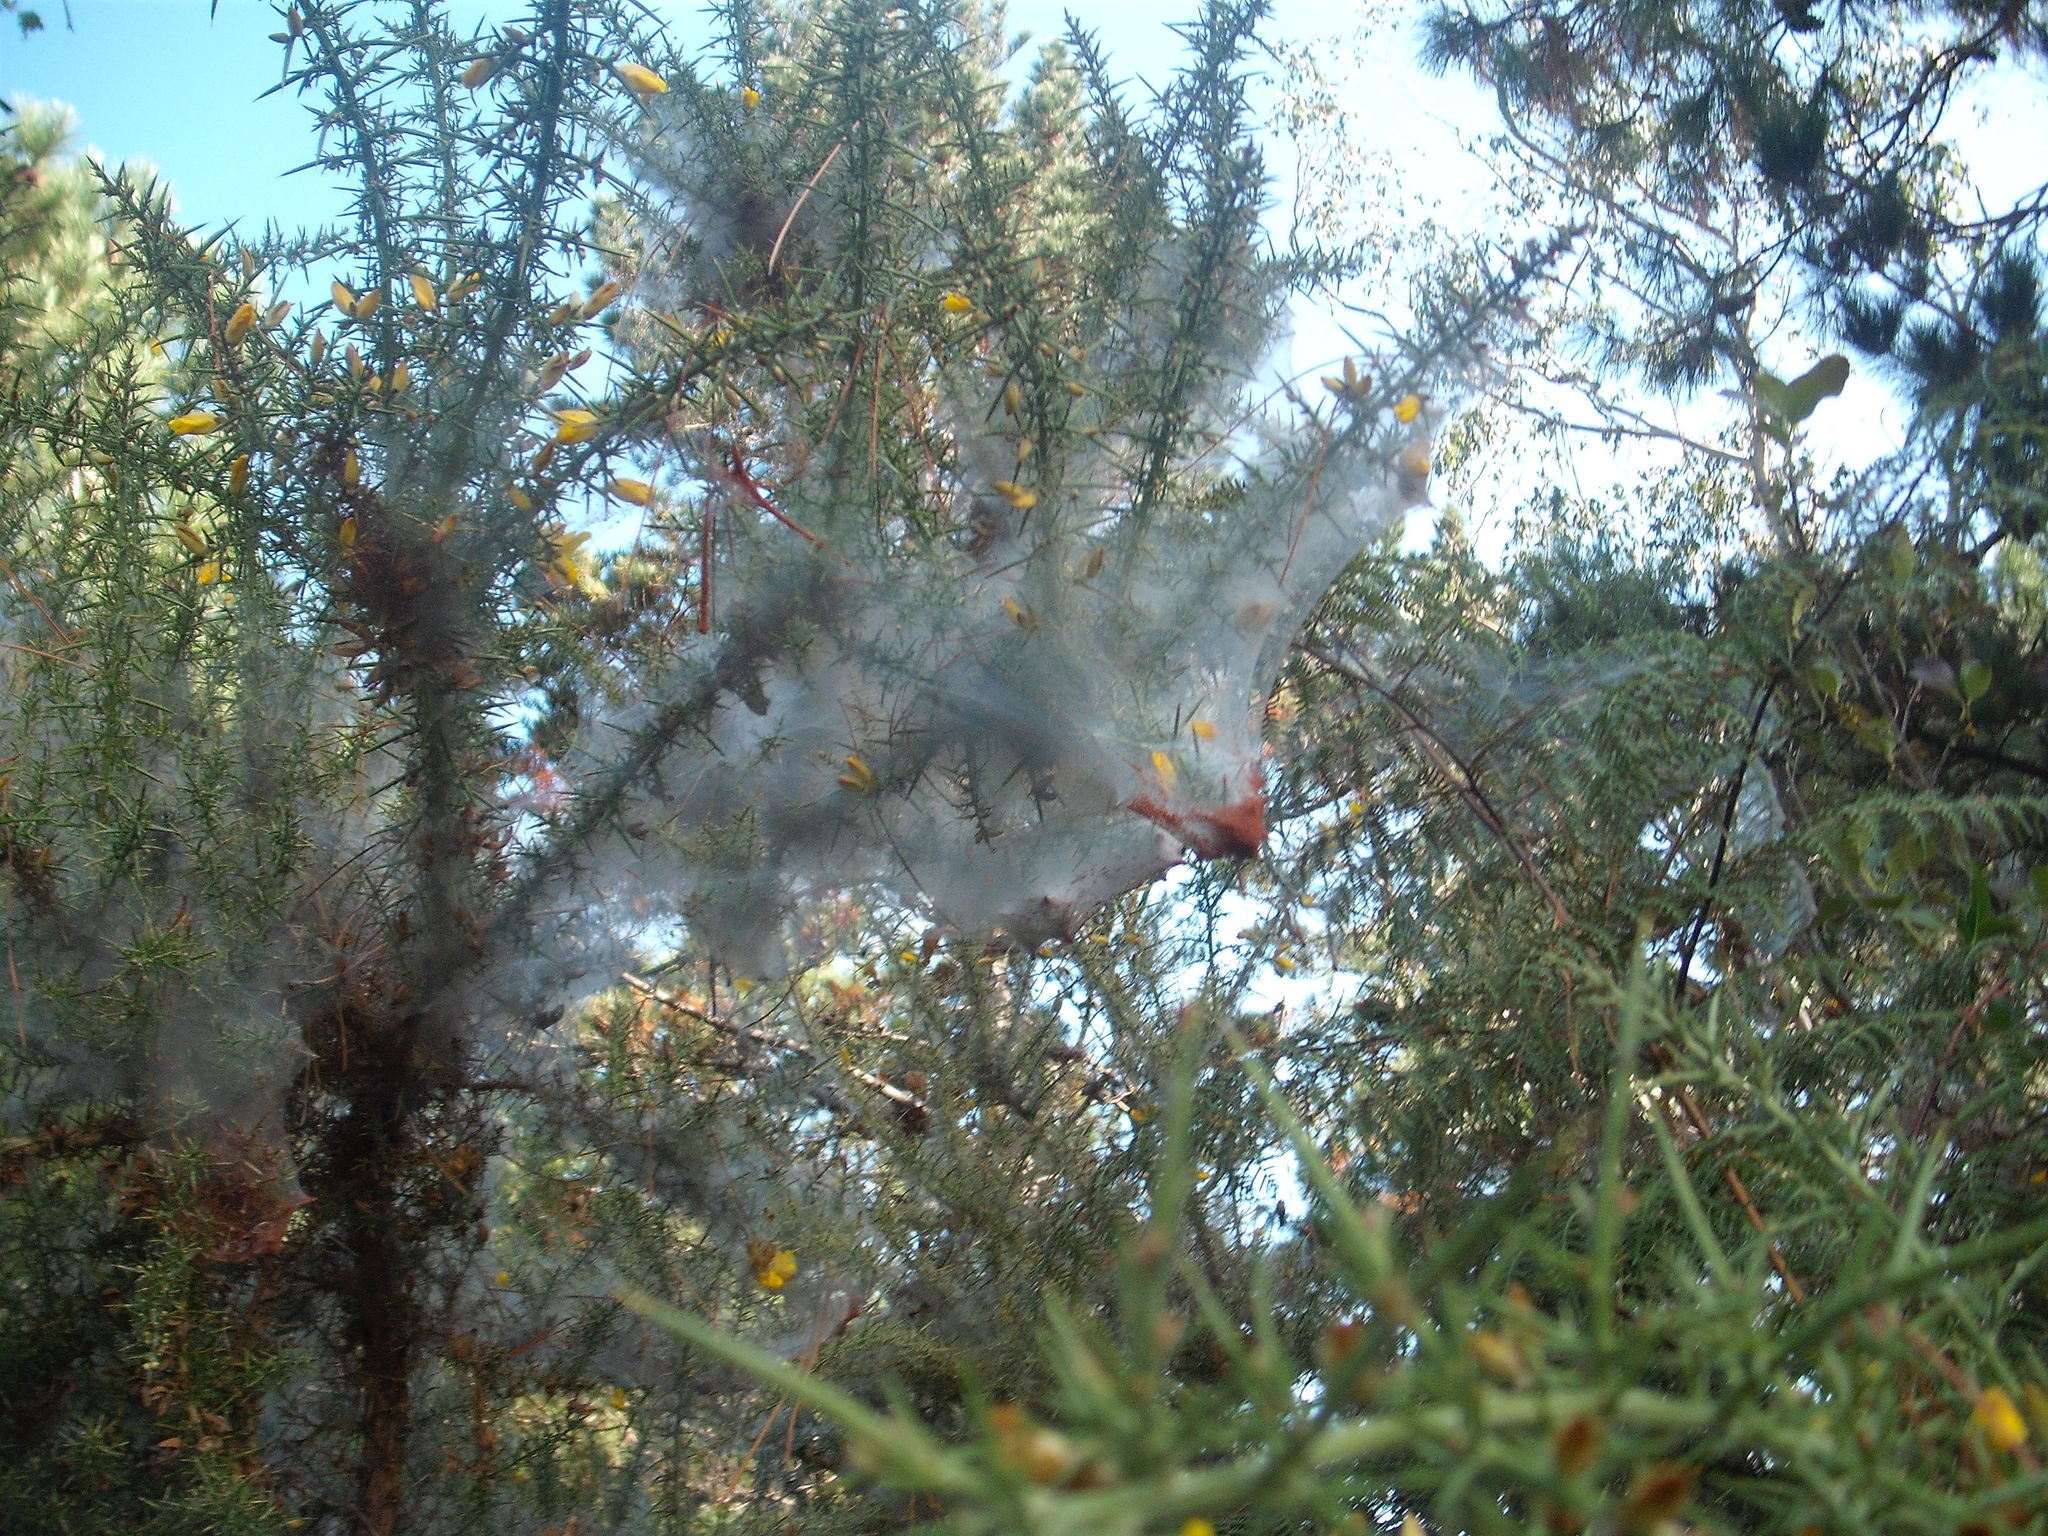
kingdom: Animalia
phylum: Arthropoda
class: Arachnida
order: Trombidiformes
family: Tetranychidae
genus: Tetranychus
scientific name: Tetranychus lintearius
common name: Gorse spider mite
